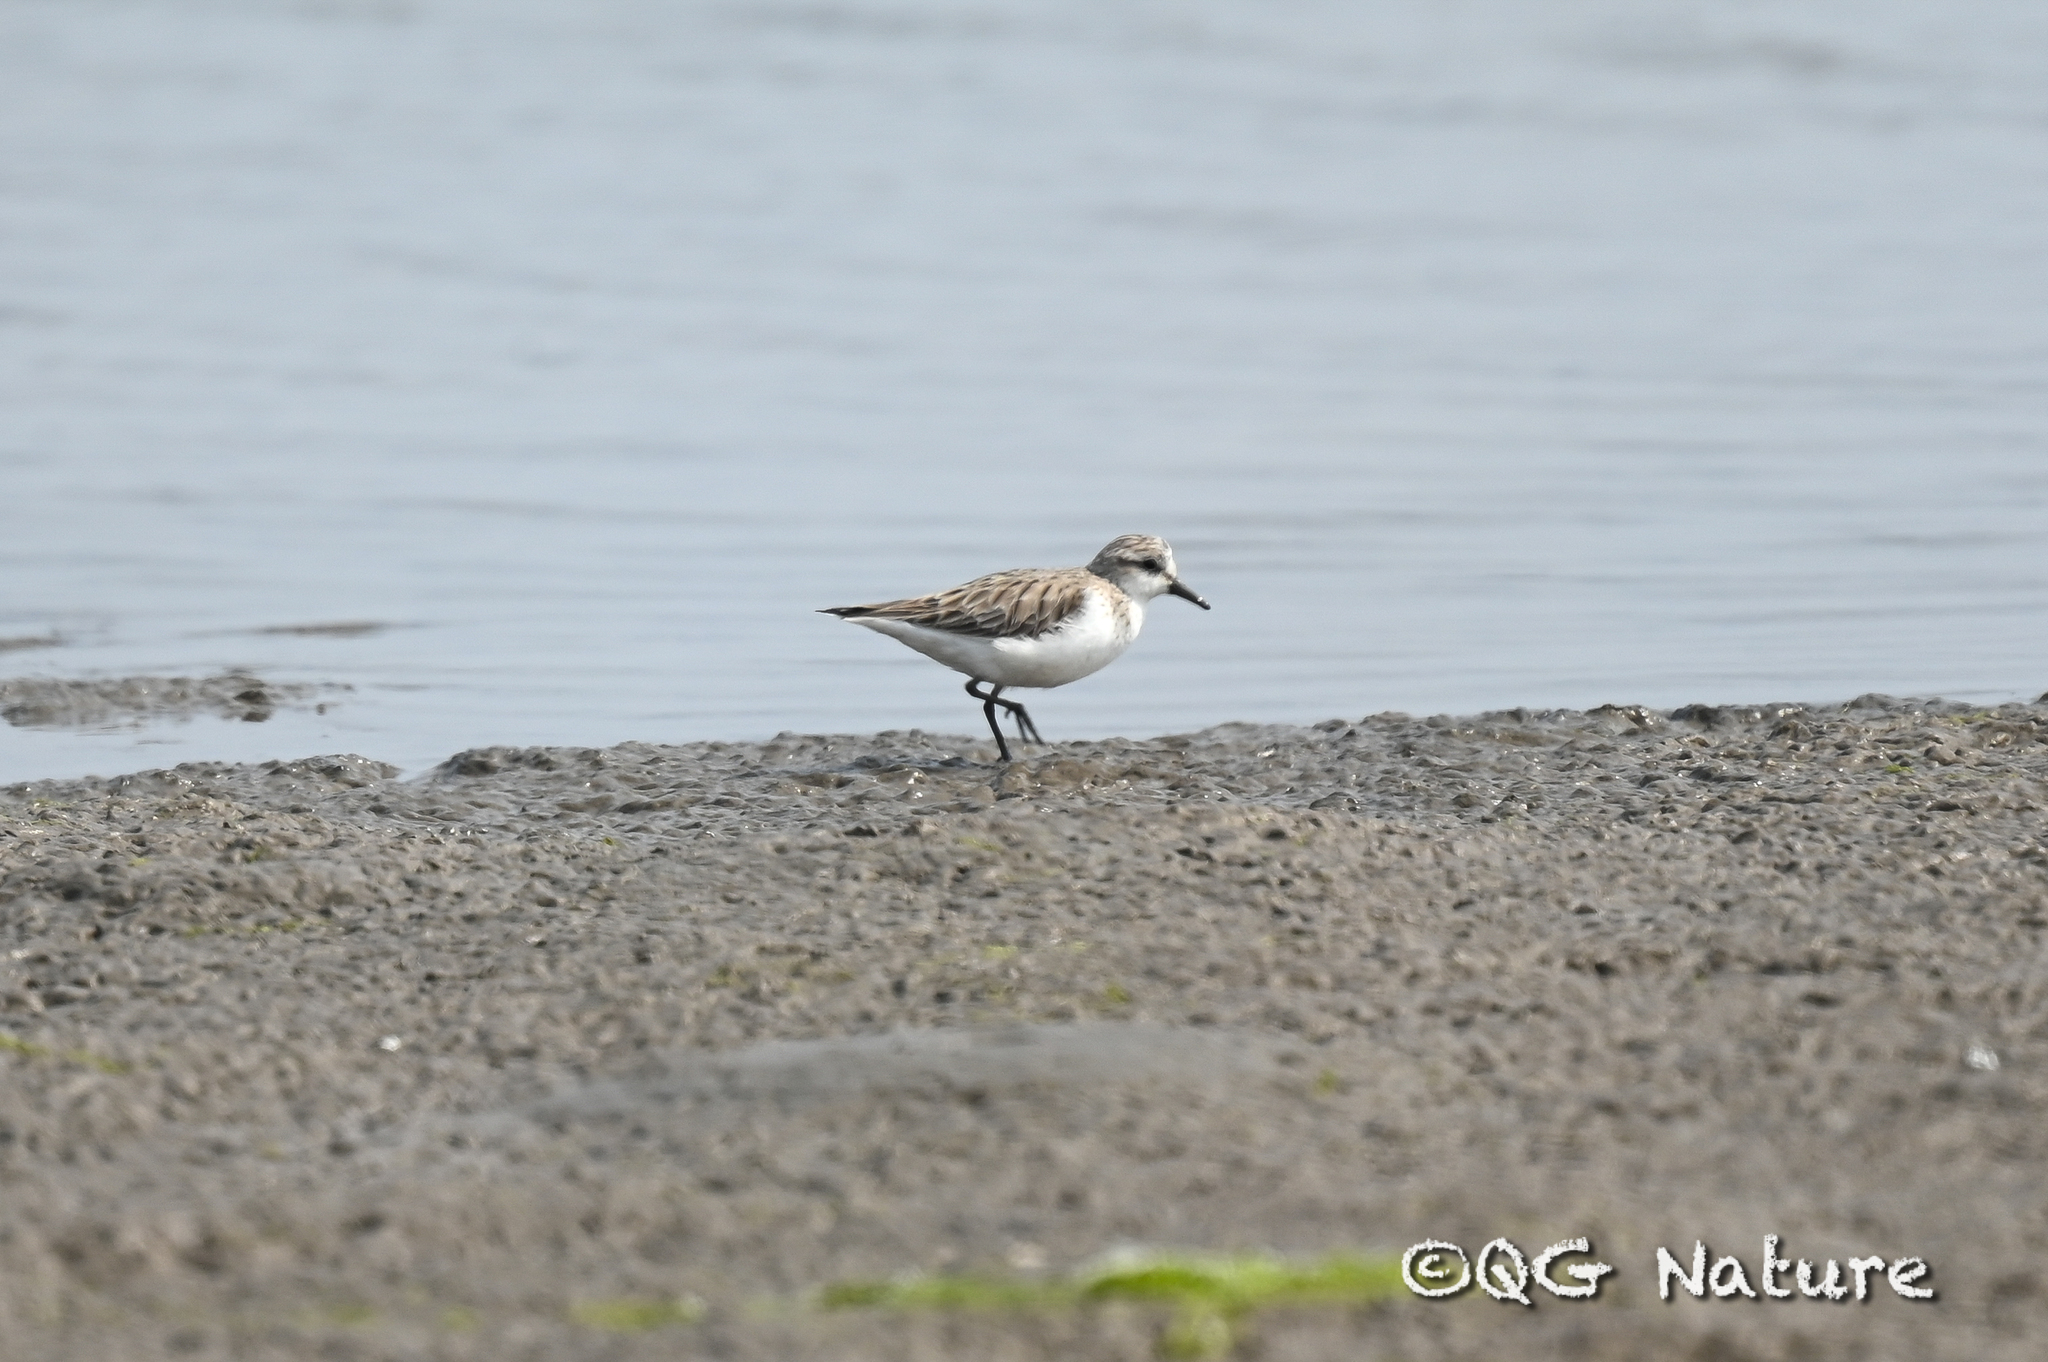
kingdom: Animalia
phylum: Chordata
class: Aves
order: Charadriiformes
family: Scolopacidae
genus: Calidris
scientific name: Calidris ruficollis
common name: Red-necked stint
